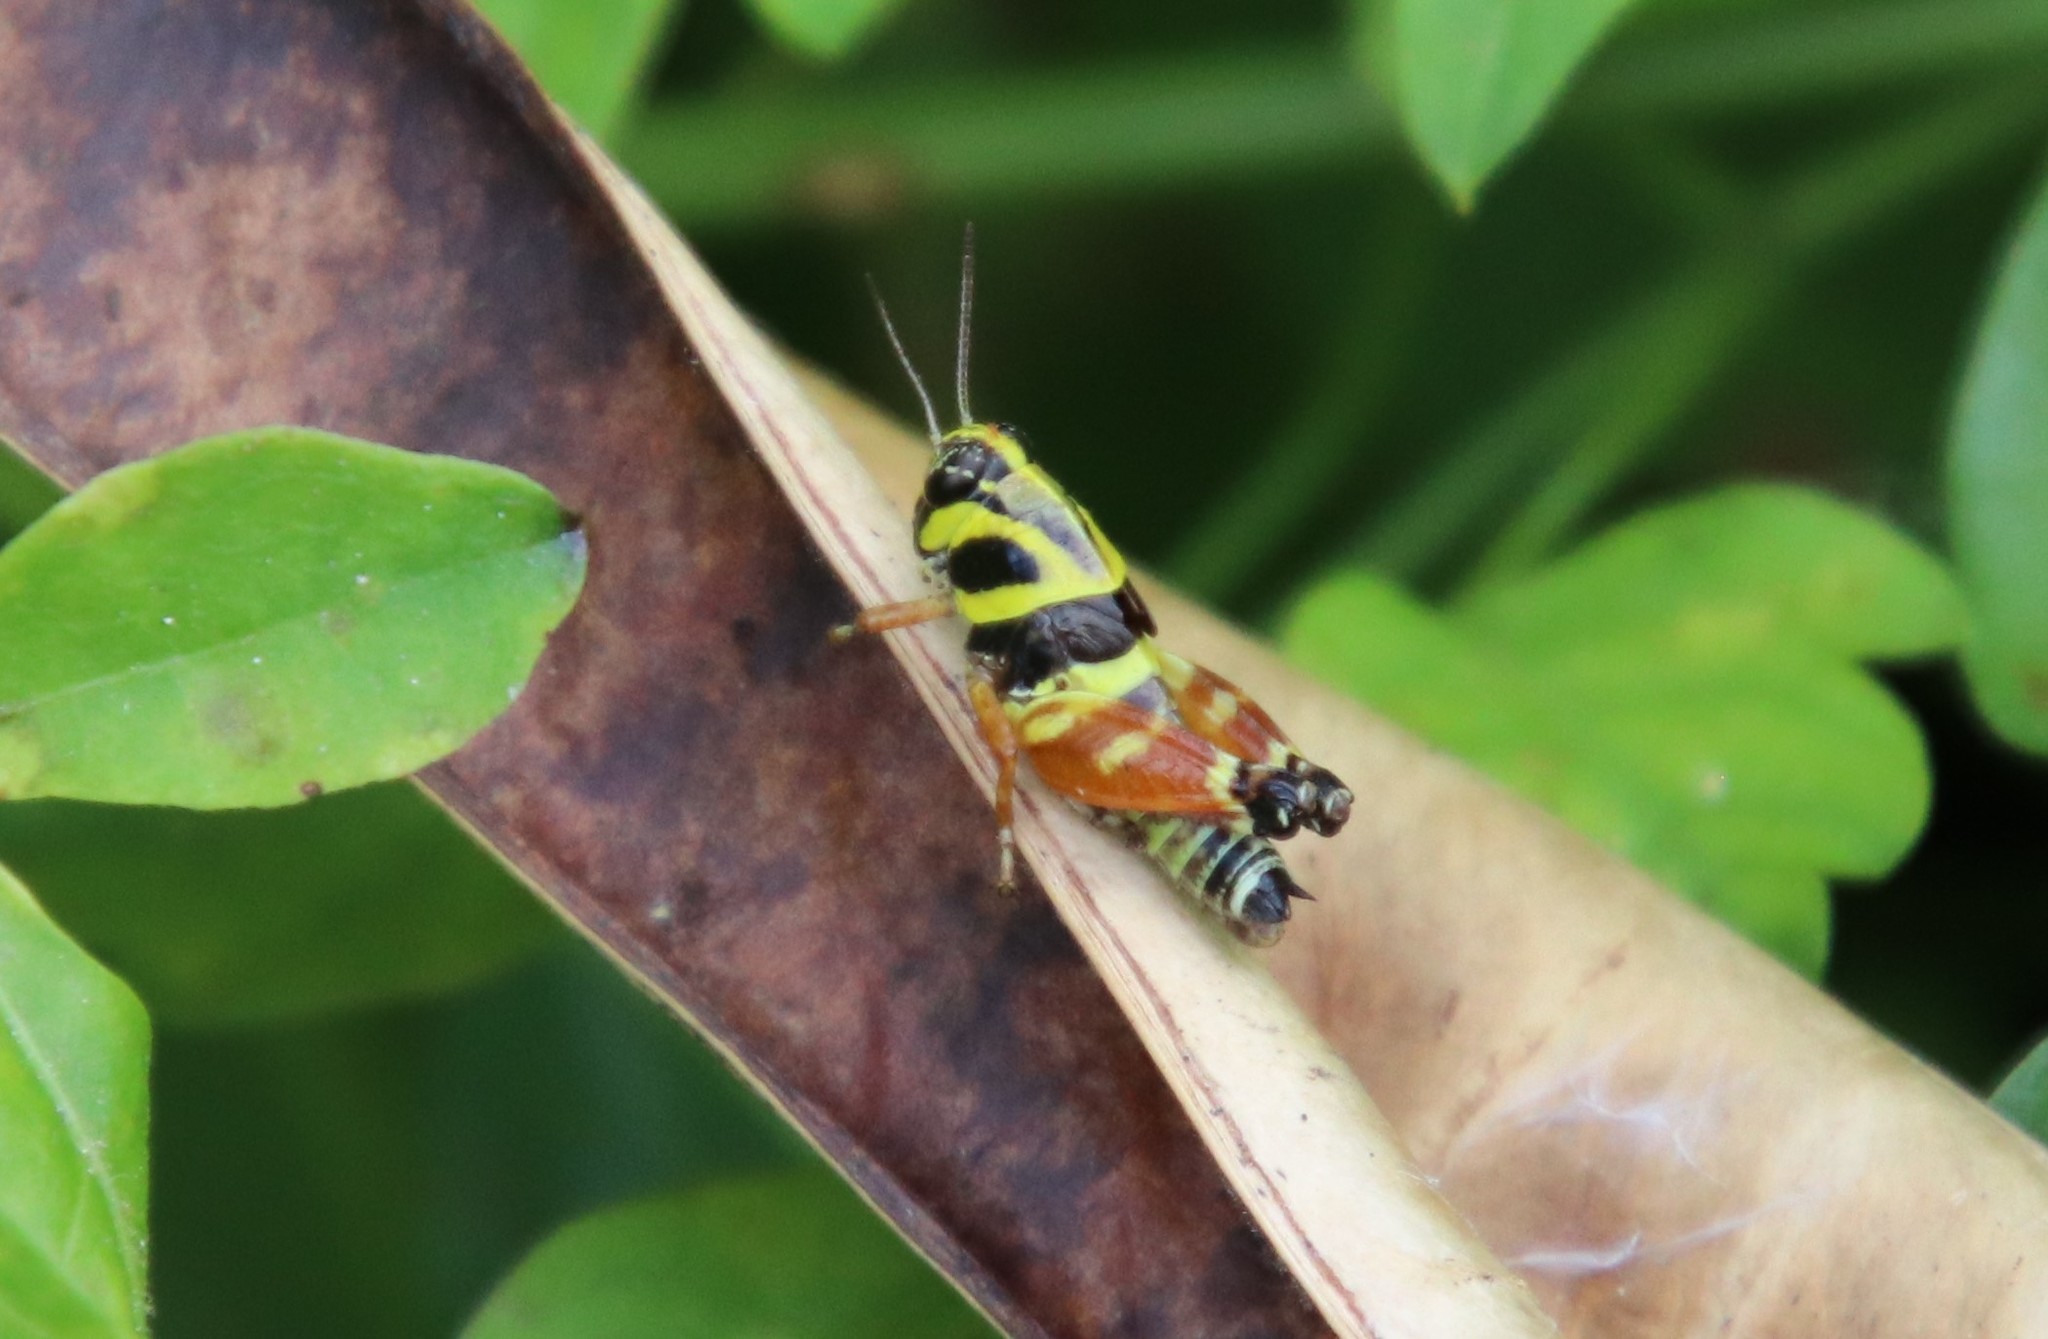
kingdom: Animalia
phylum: Arthropoda
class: Insecta
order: Orthoptera
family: Acrididae
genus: Aidemona
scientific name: Aidemona azteca
